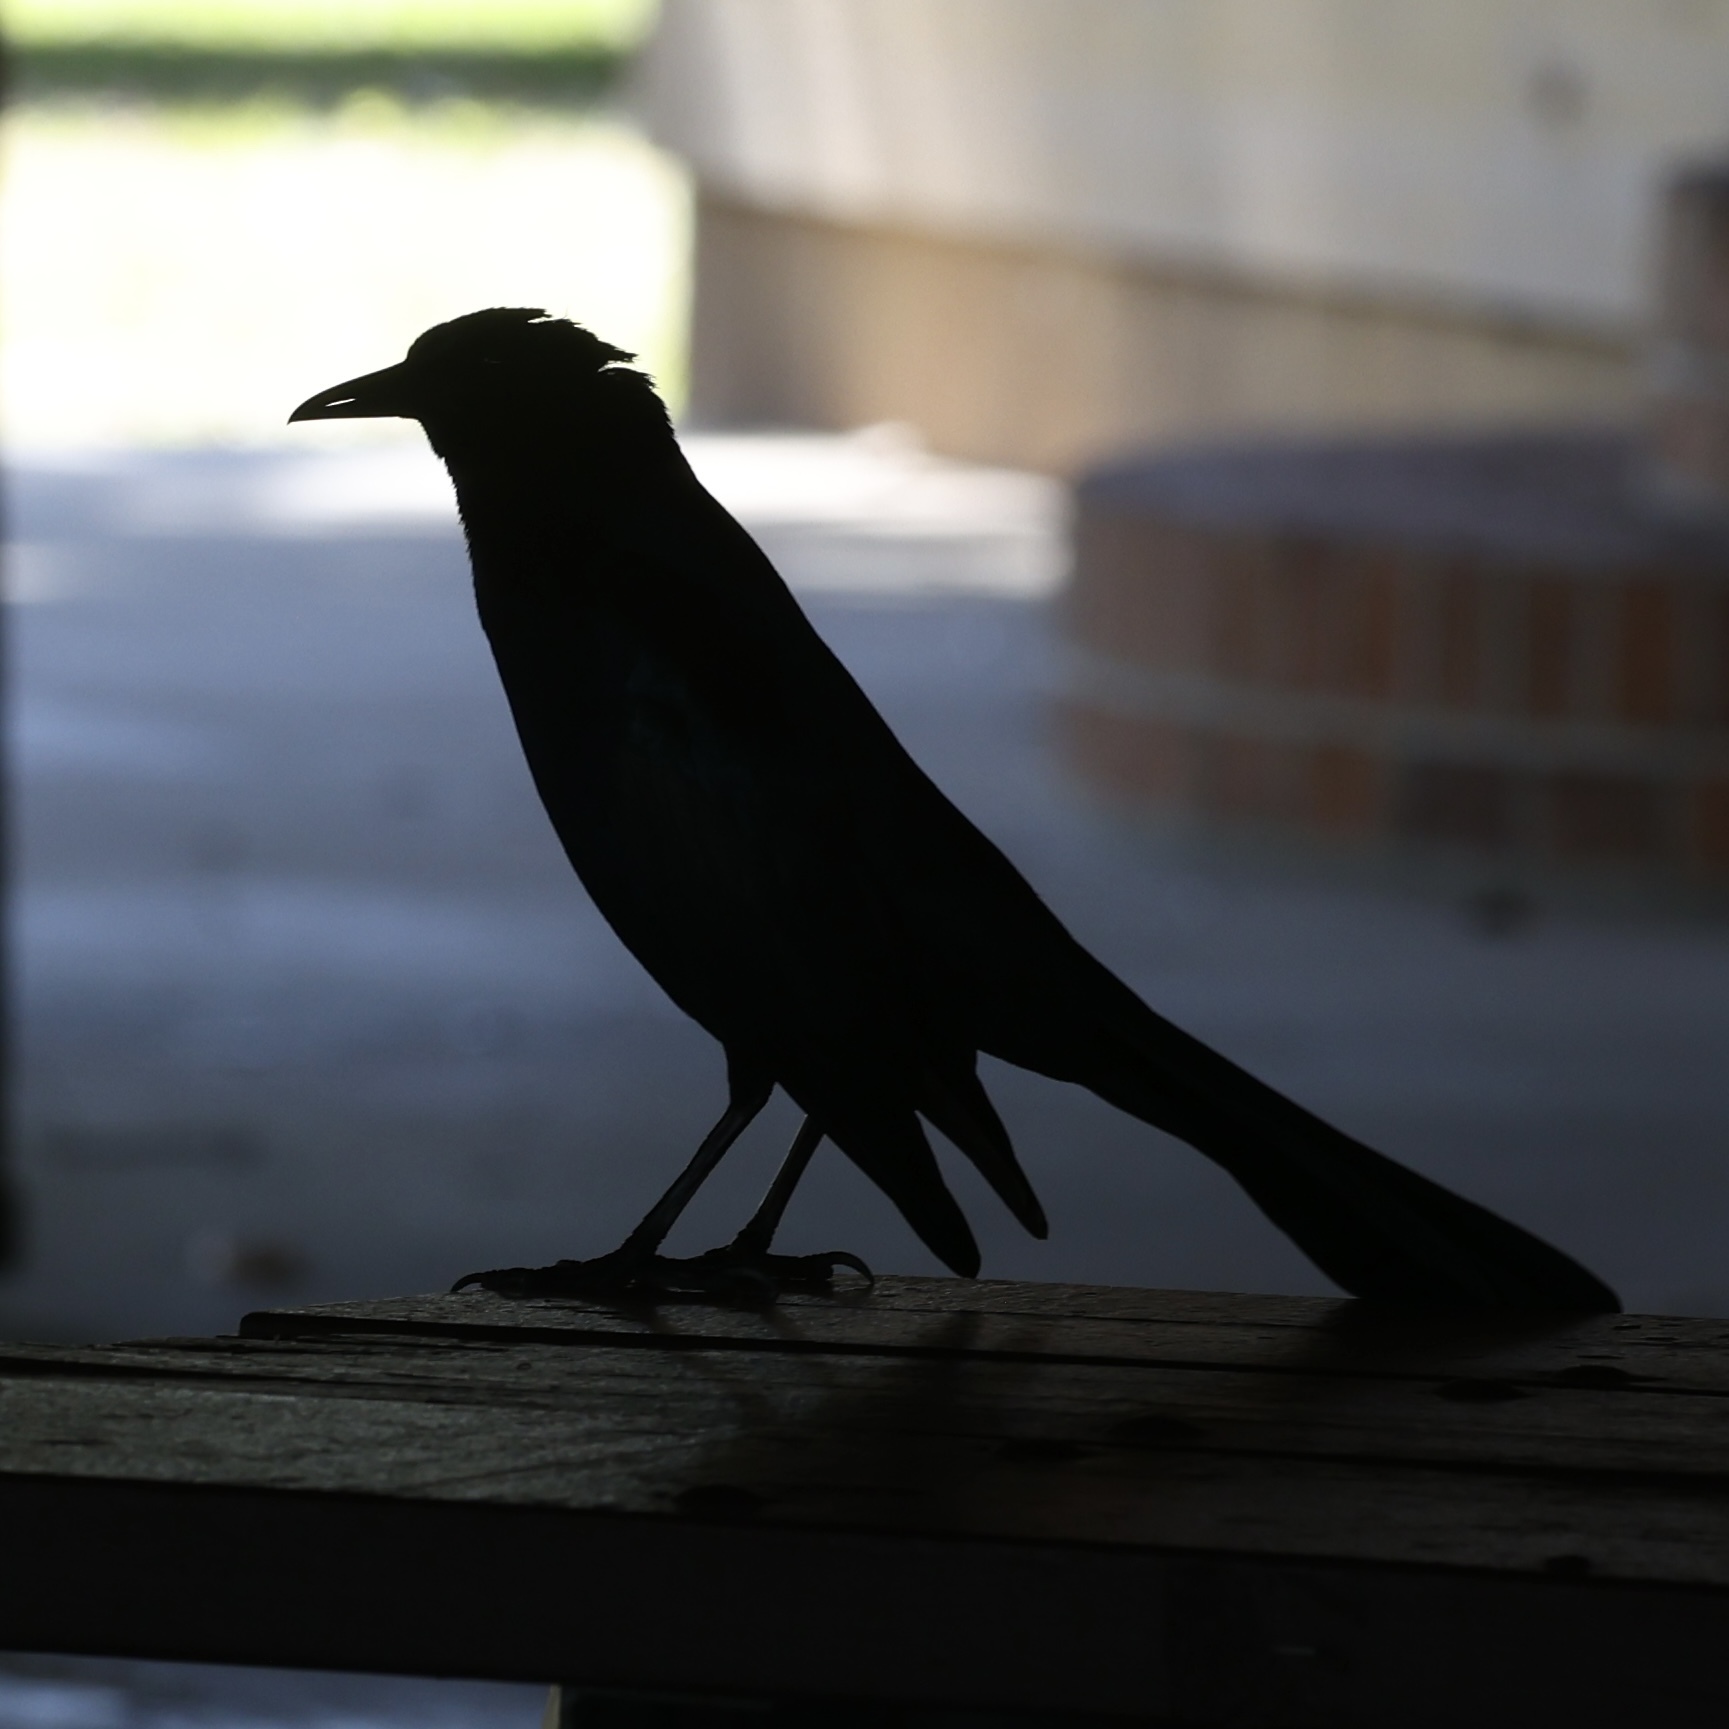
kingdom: Animalia
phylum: Chordata
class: Aves
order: Passeriformes
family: Icteridae
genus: Quiscalus
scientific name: Quiscalus major
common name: Boat-tailed grackle
